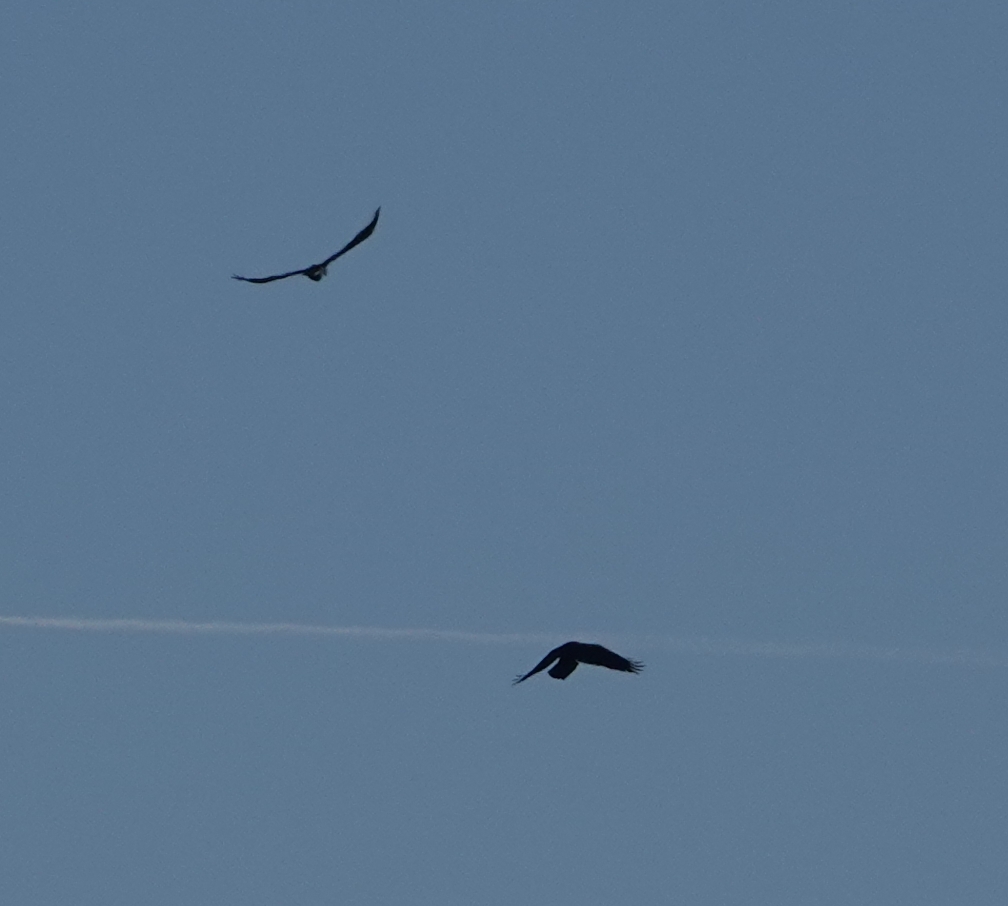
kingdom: Animalia
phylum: Chordata
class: Aves
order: Passeriformes
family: Corvidae
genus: Corvus
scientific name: Corvus corax
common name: Common raven
